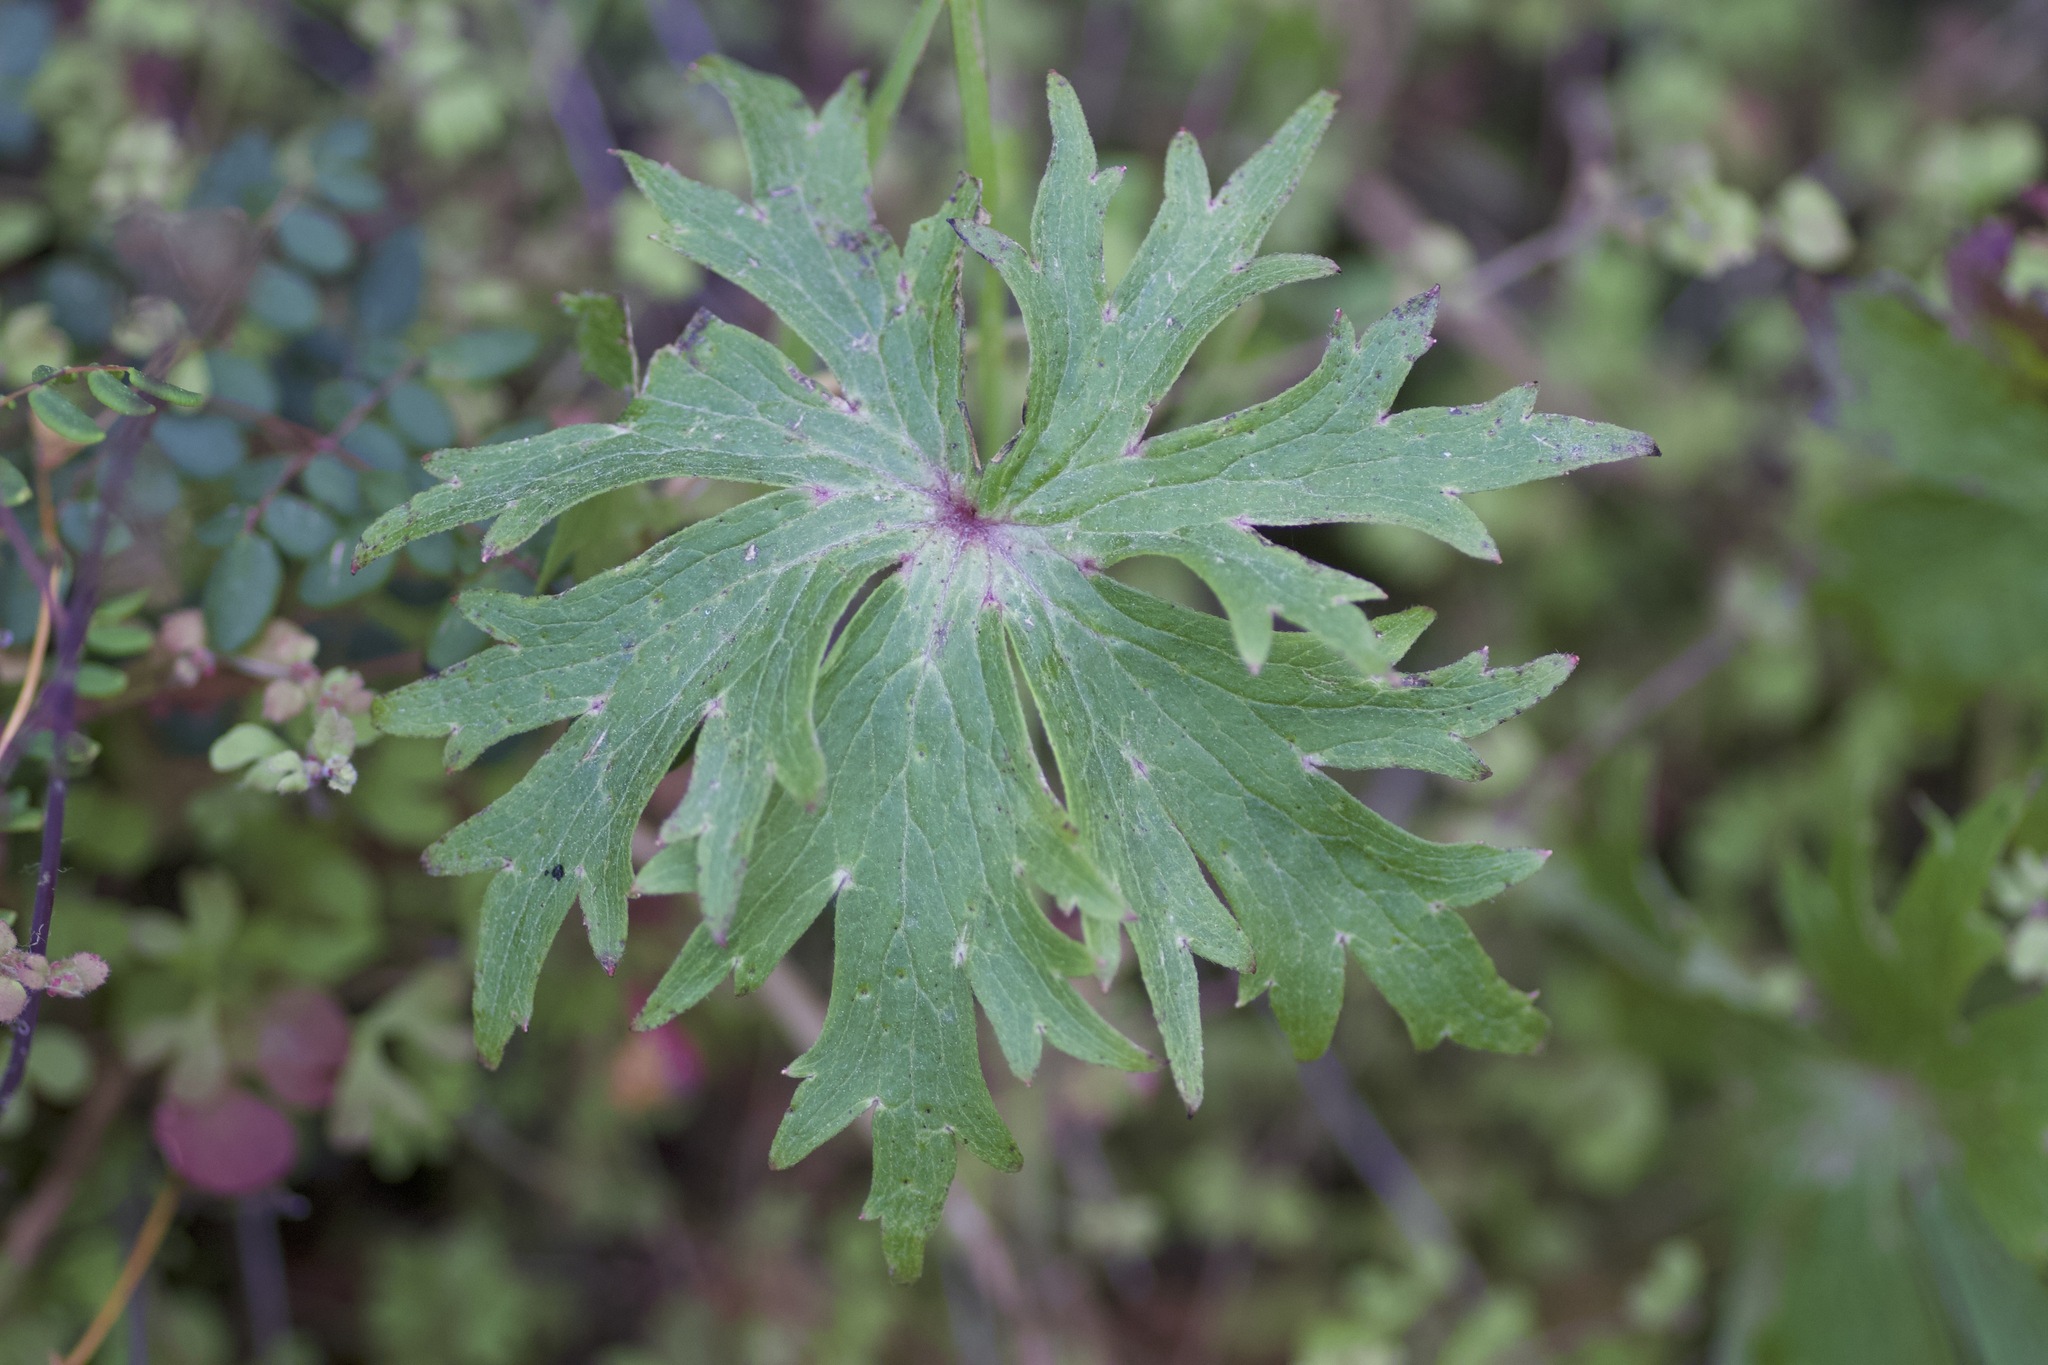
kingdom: Plantae
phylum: Tracheophyta
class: Magnoliopsida
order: Ranunculales
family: Ranunculaceae
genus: Delphinium
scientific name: Delphinium cardinale
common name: Scarlet larkspur
